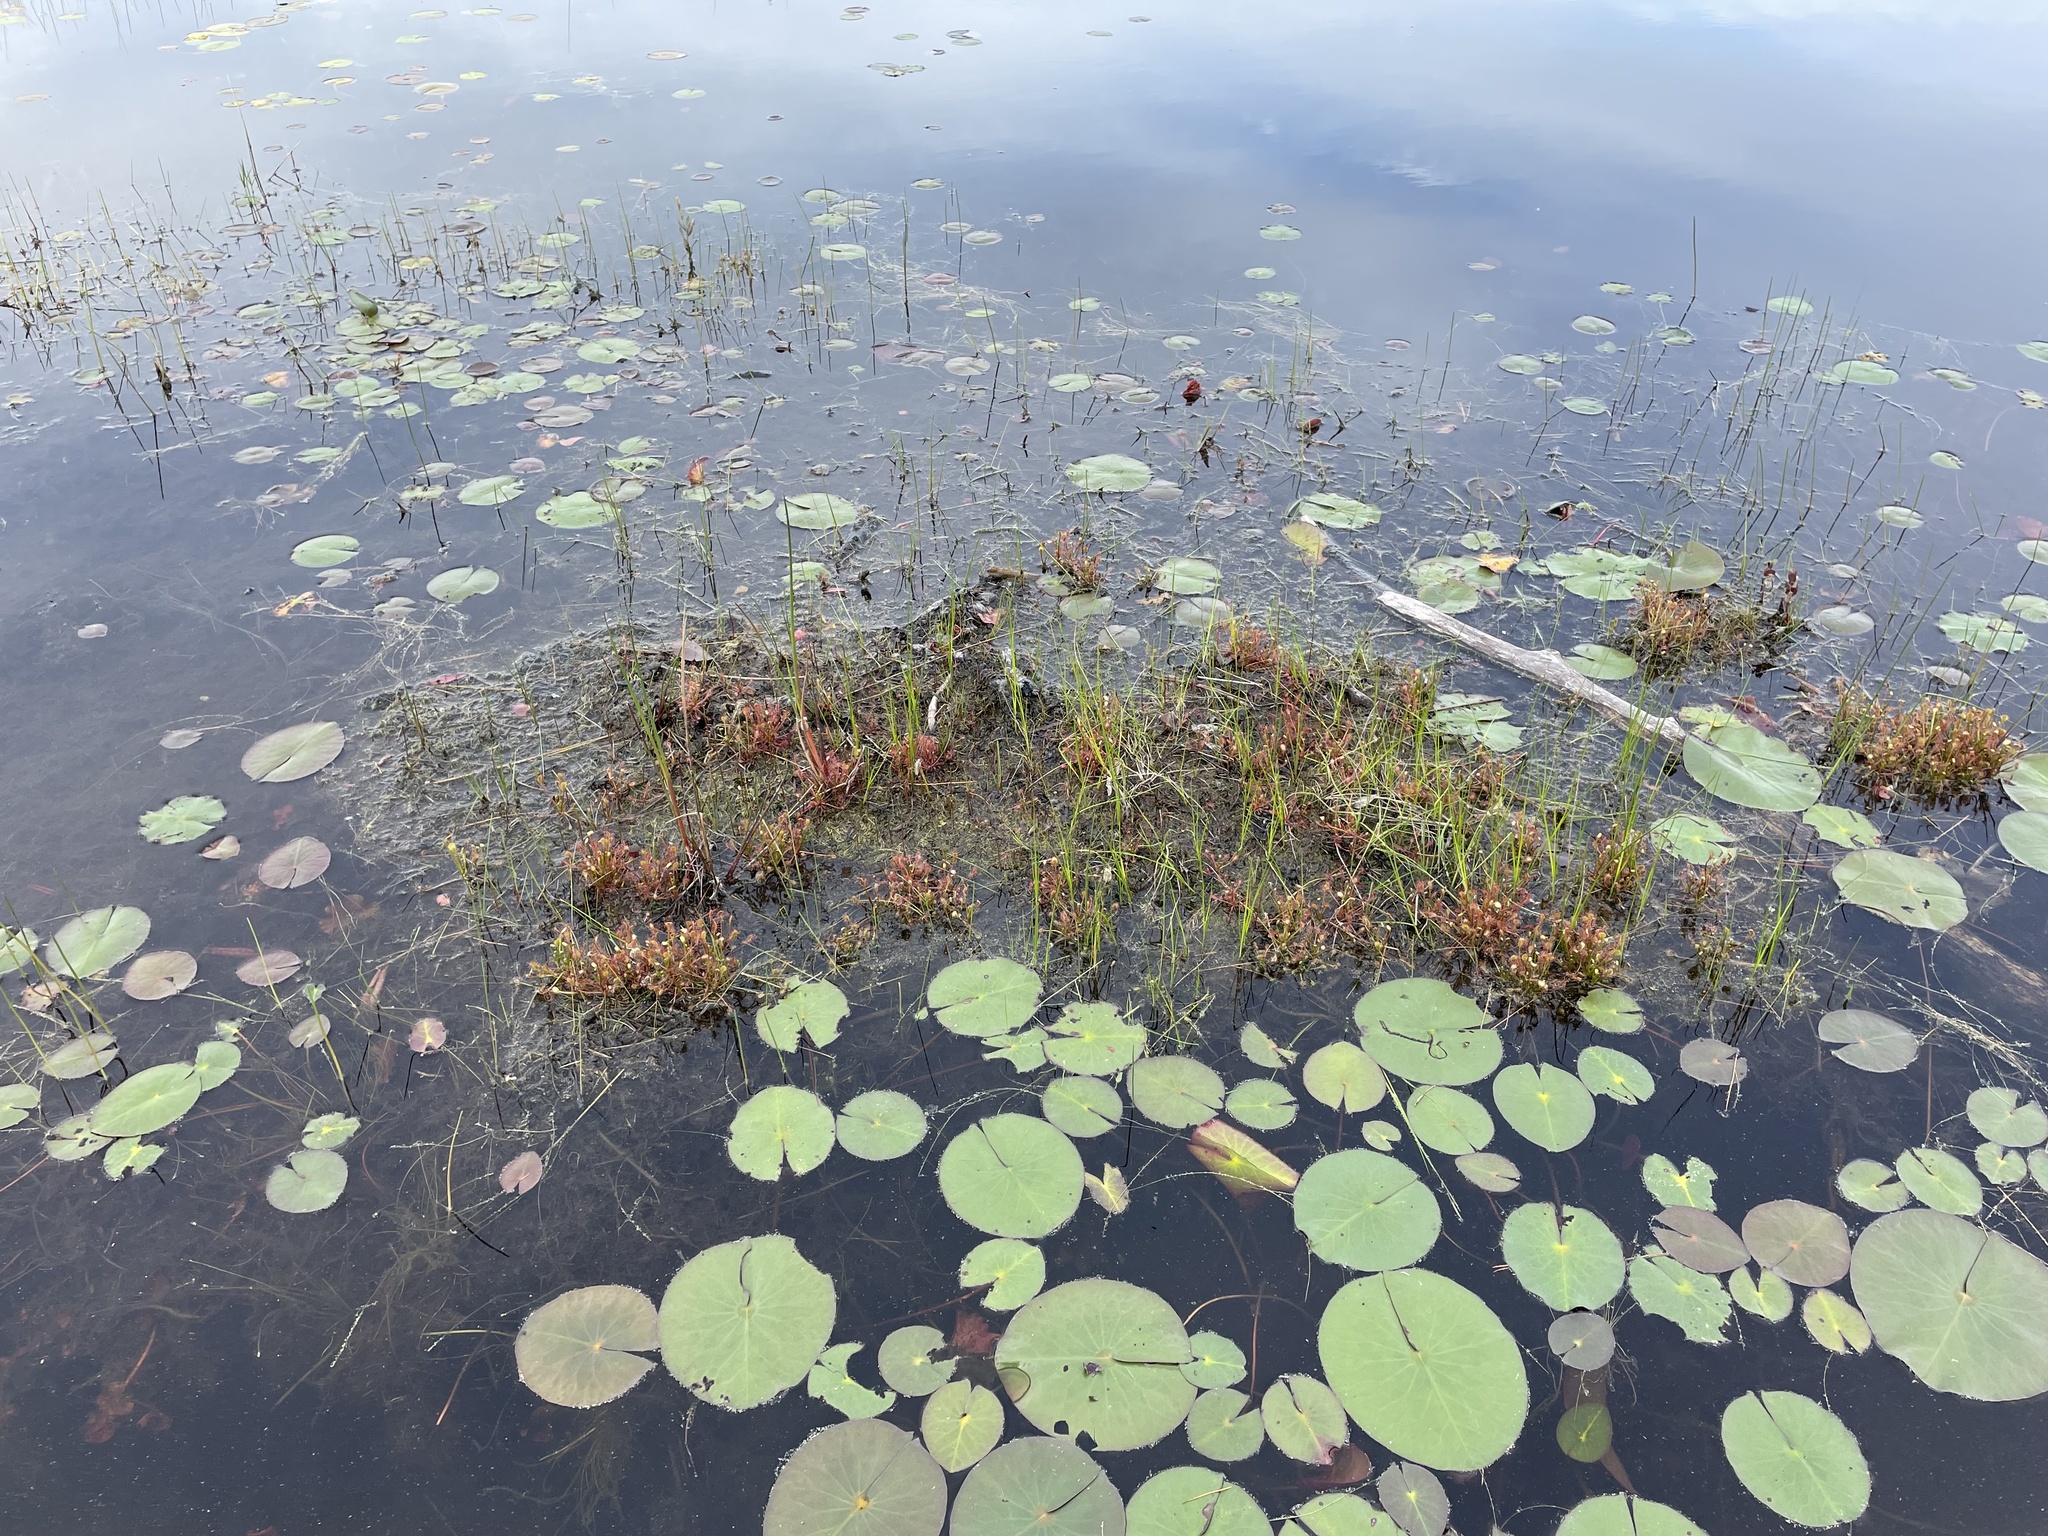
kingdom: Plantae
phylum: Tracheophyta
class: Magnoliopsida
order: Caryophyllales
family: Droseraceae
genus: Drosera
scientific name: Drosera intermedia
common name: Oblong-leaved sundew
